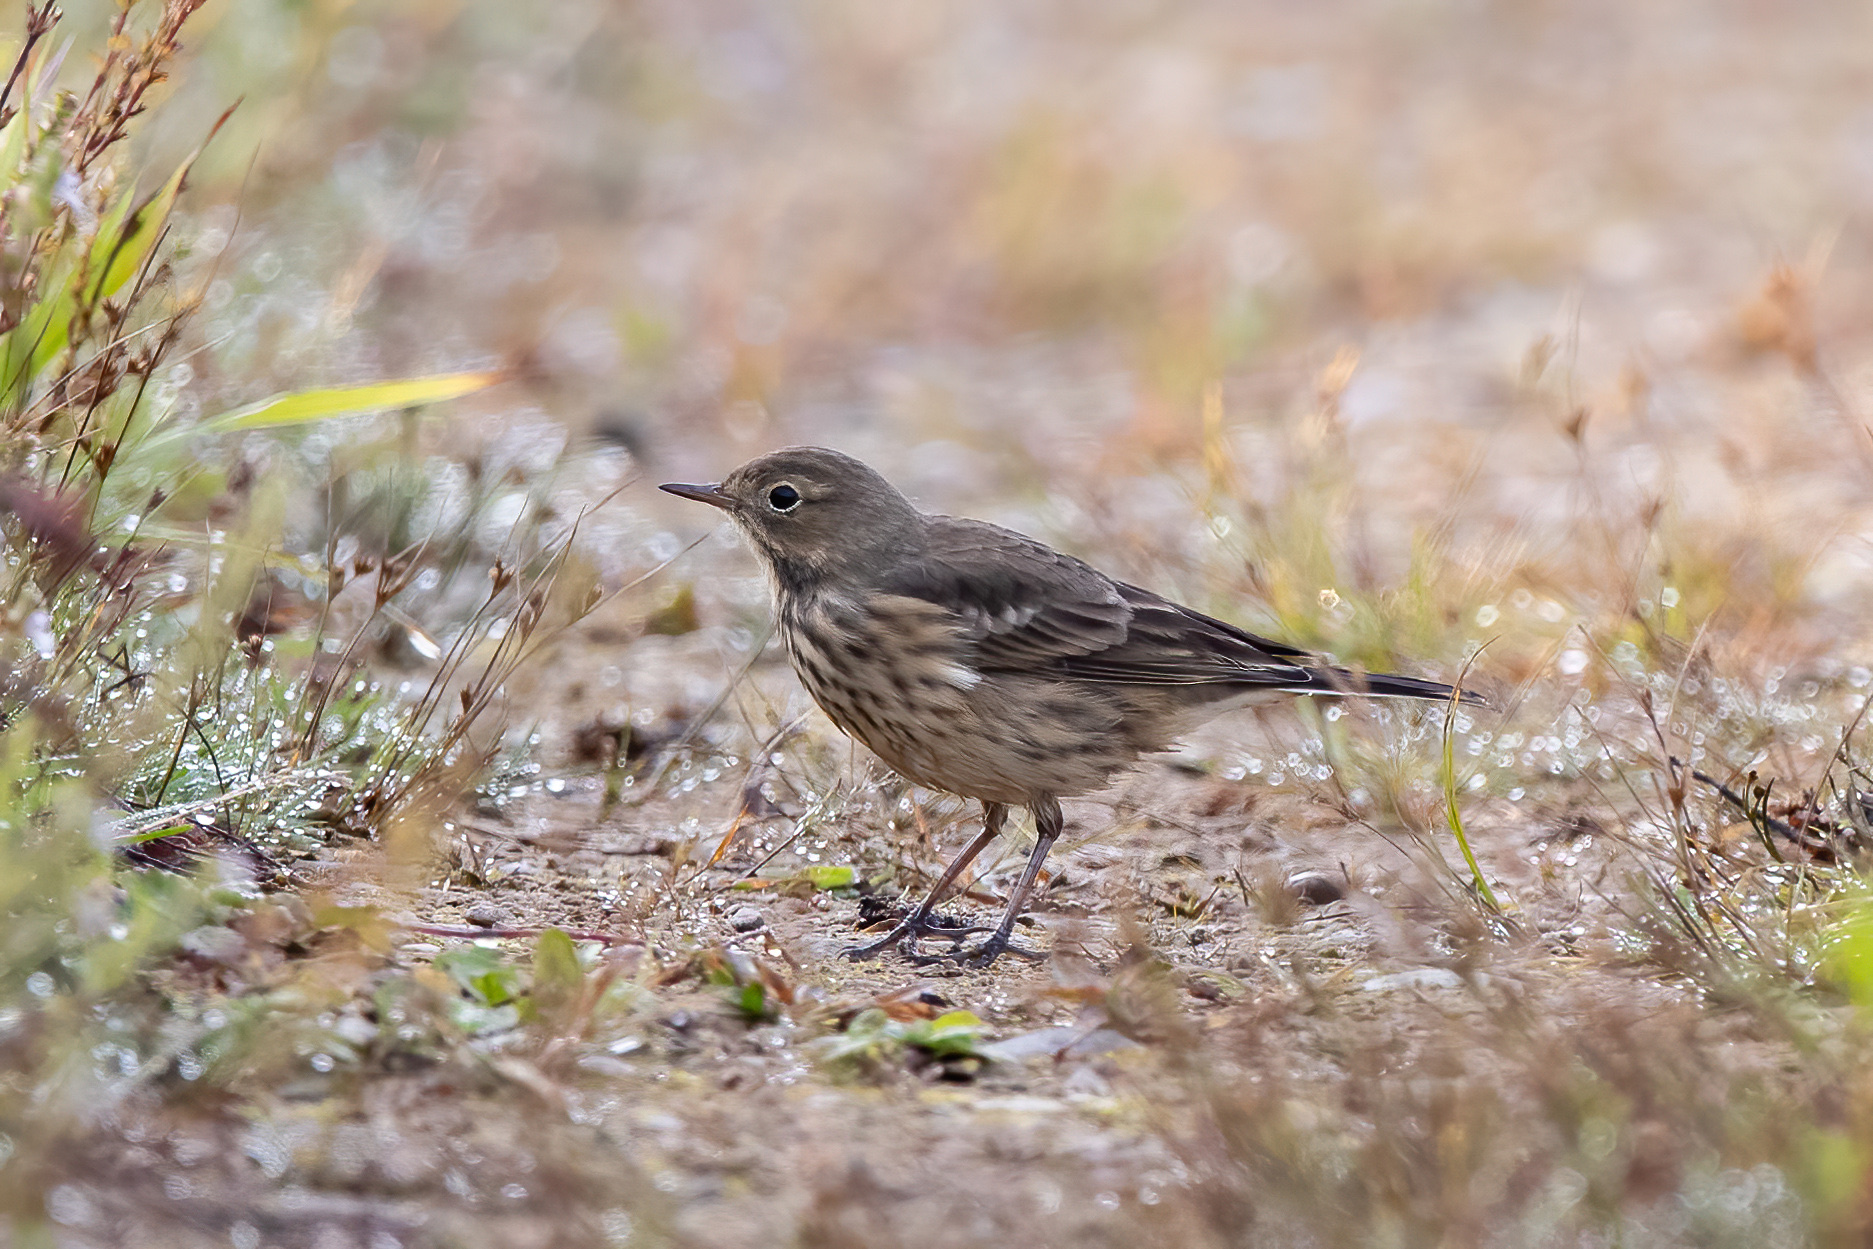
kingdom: Animalia
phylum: Chordata
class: Aves
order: Passeriformes
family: Motacillidae
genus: Anthus
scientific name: Anthus rubescens
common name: Buff-bellied pipit
